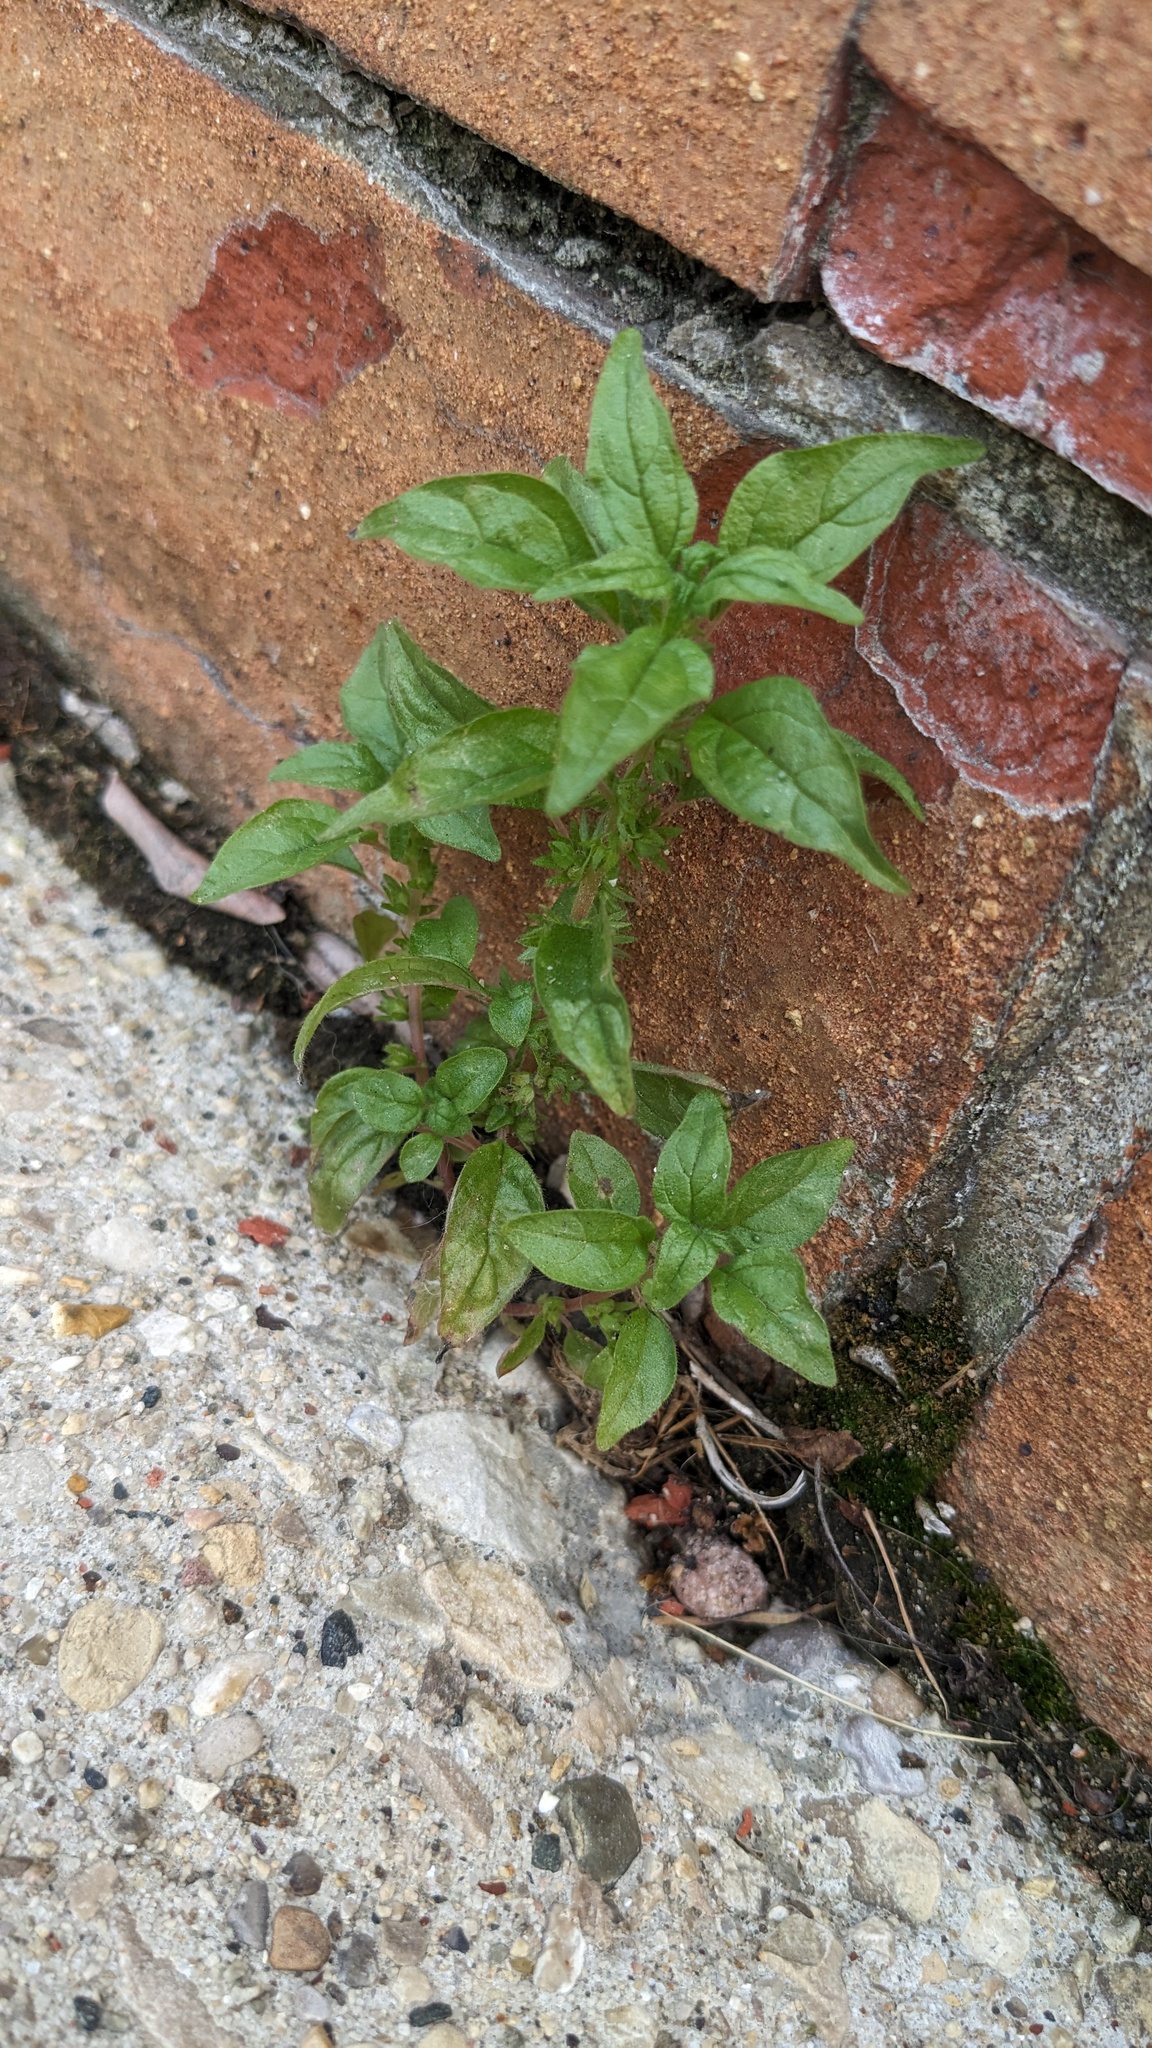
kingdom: Plantae
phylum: Tracheophyta
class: Magnoliopsida
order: Rosales
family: Urticaceae
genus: Parietaria
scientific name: Parietaria pensylvanica
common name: Pennsylvania pellitory
